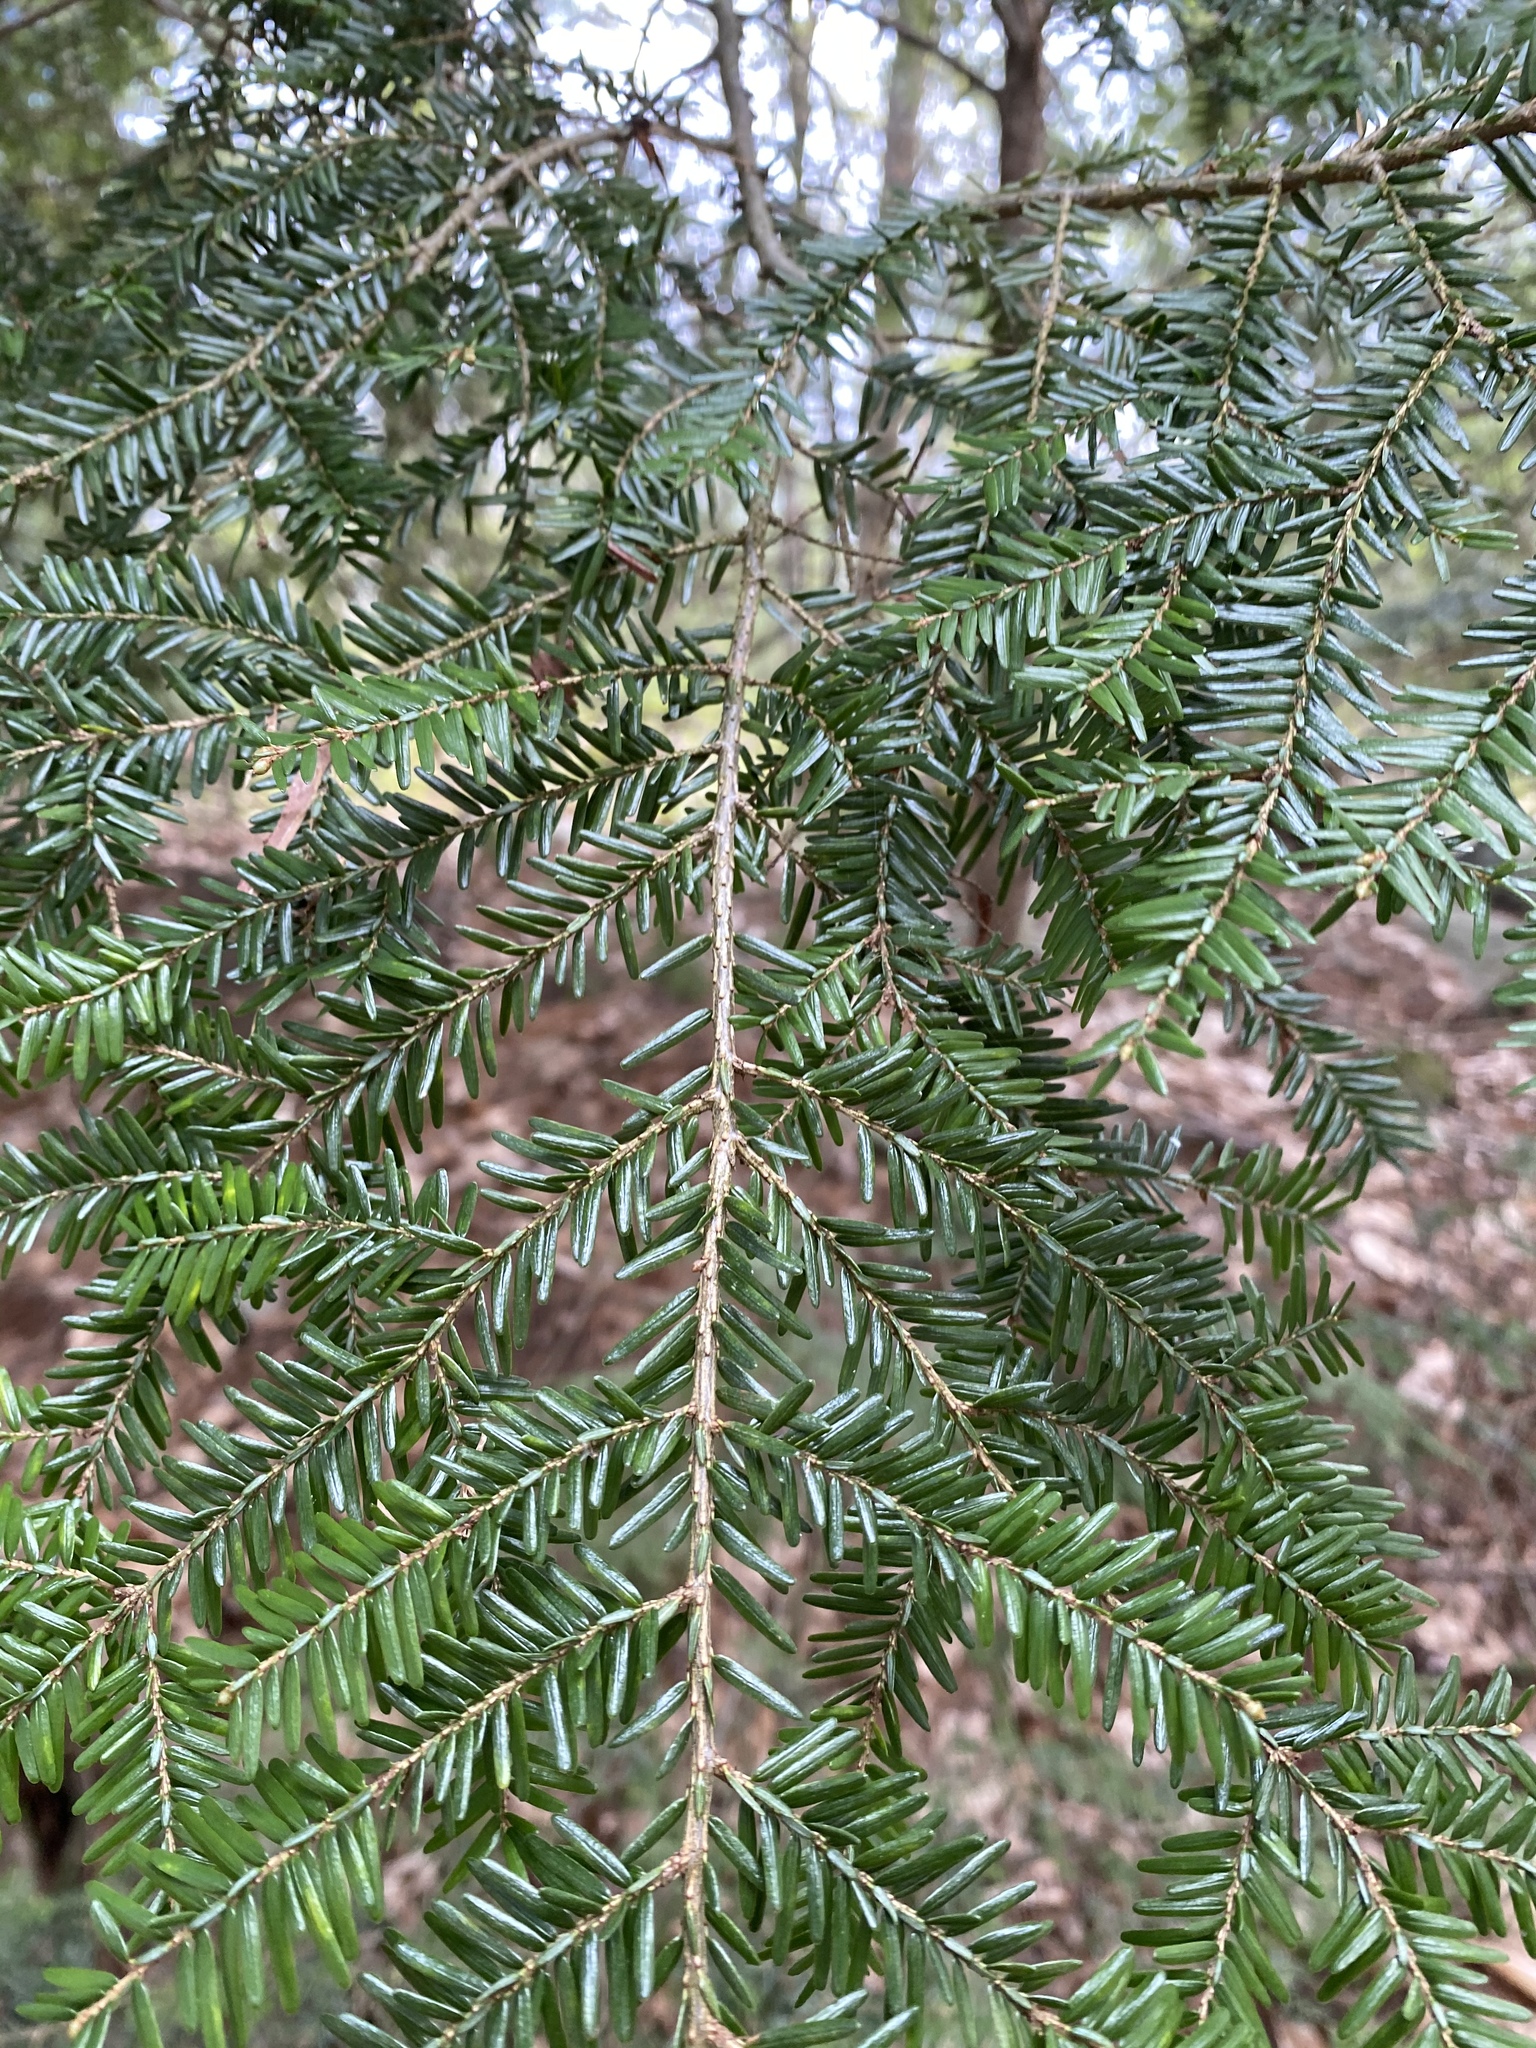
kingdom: Plantae
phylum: Tracheophyta
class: Pinopsida
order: Pinales
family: Cupressaceae
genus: Juniperus
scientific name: Juniperus virginiana
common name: Red juniper
